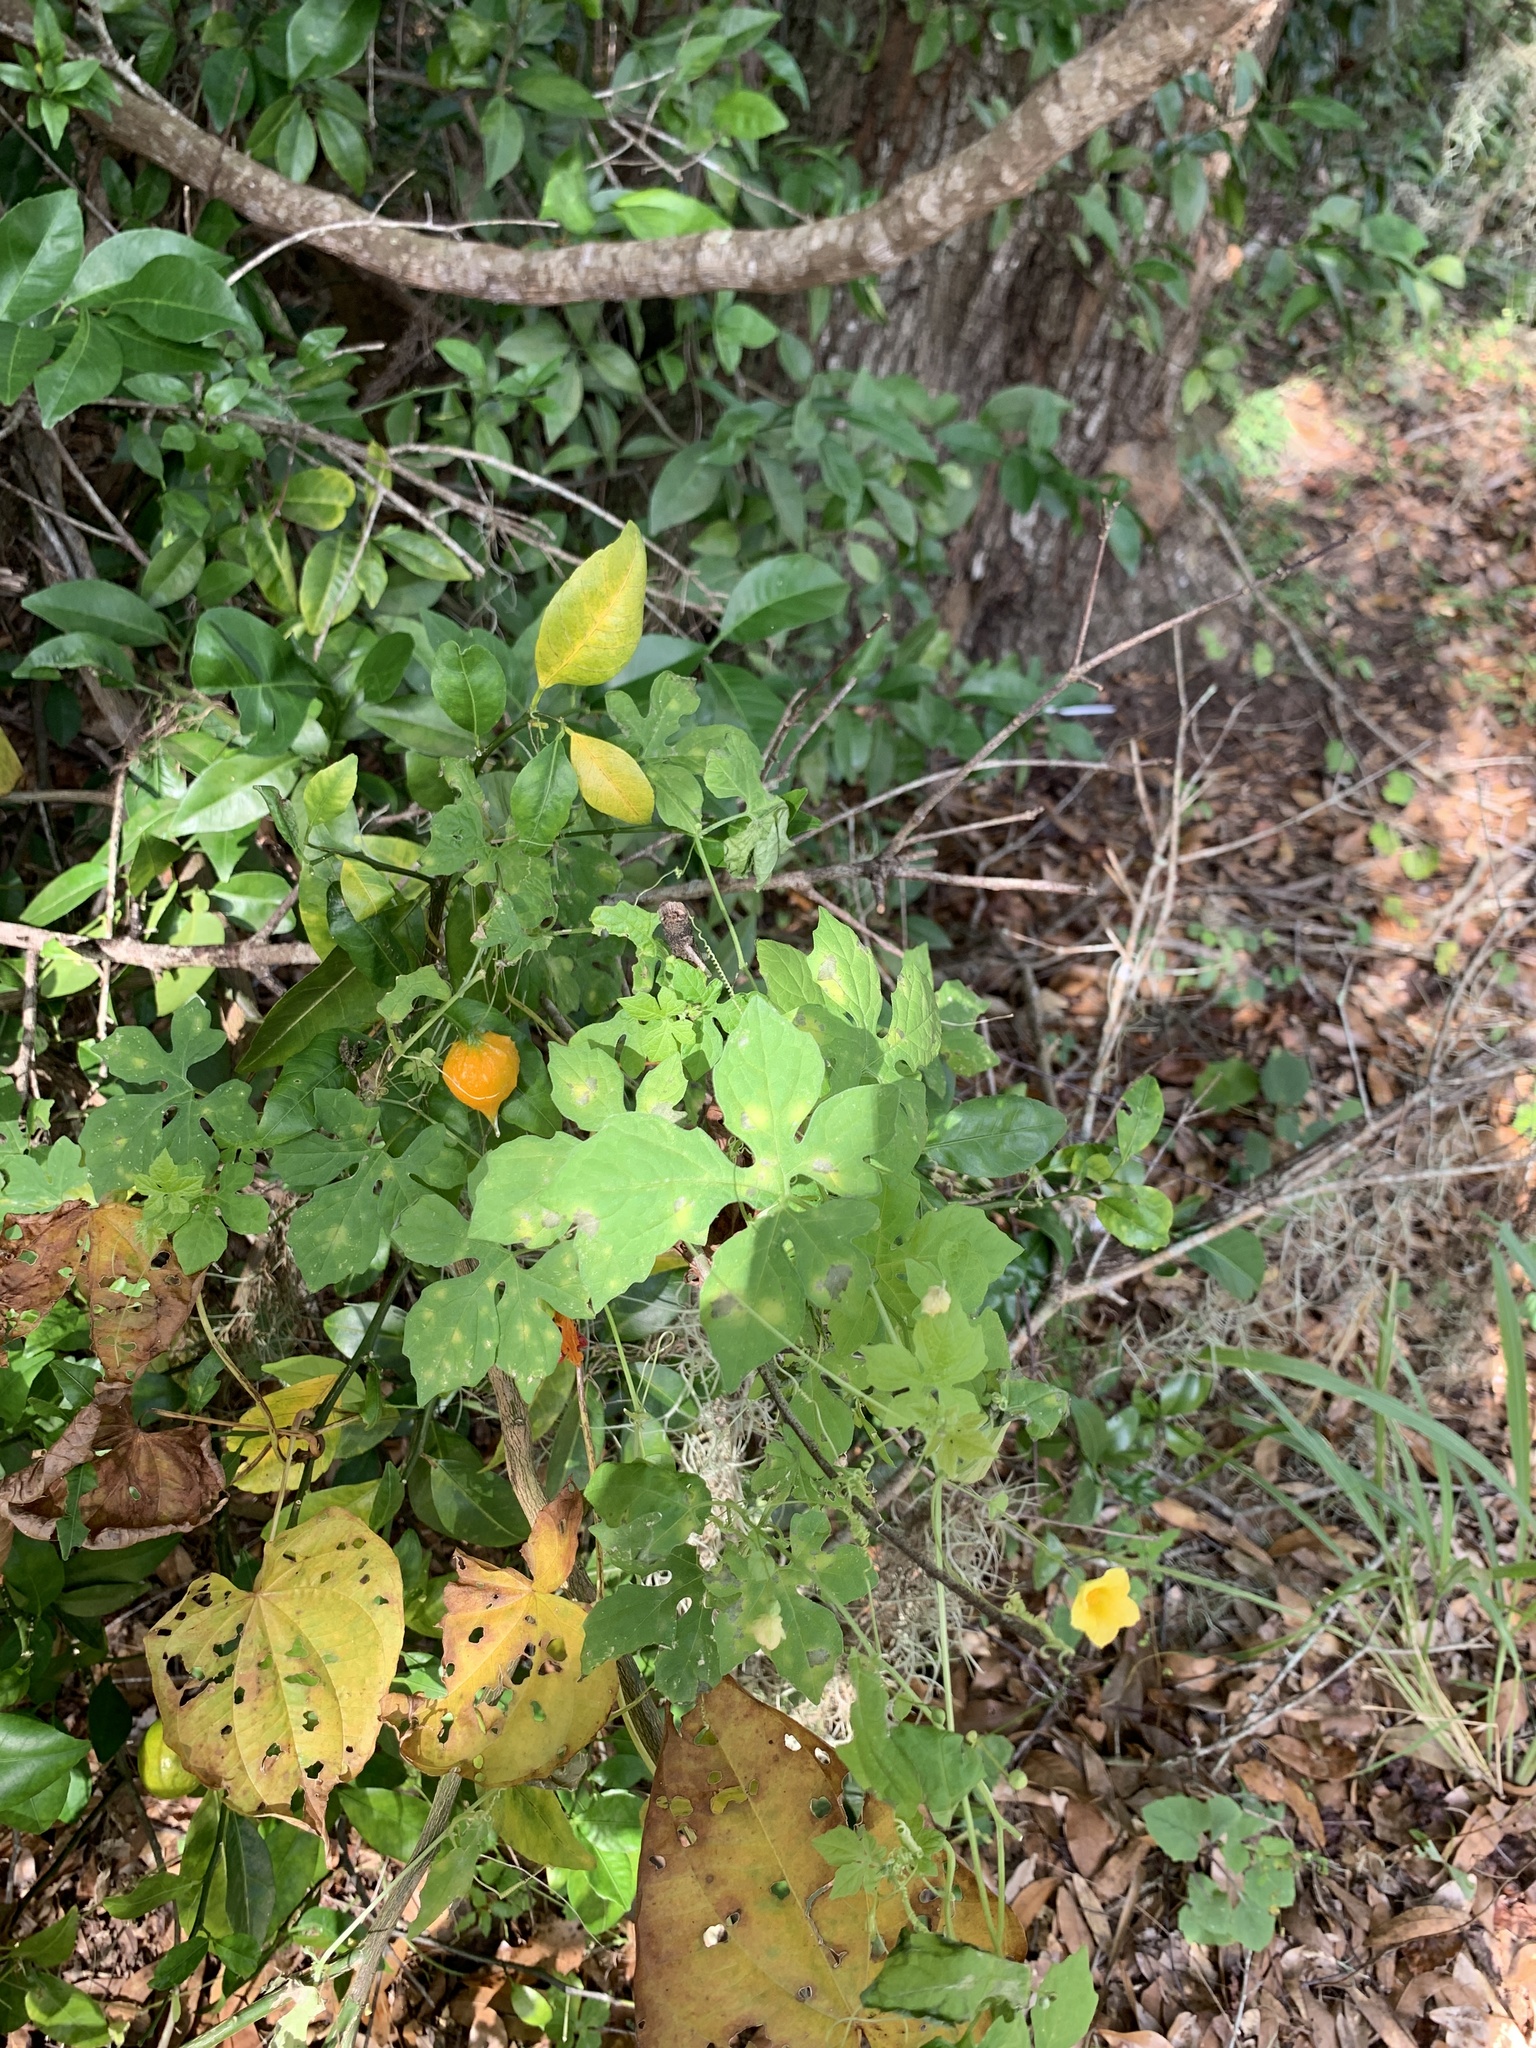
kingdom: Plantae
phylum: Tracheophyta
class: Magnoliopsida
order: Cucurbitales
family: Cucurbitaceae
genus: Momordica
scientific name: Momordica charantia
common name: Balsampear
